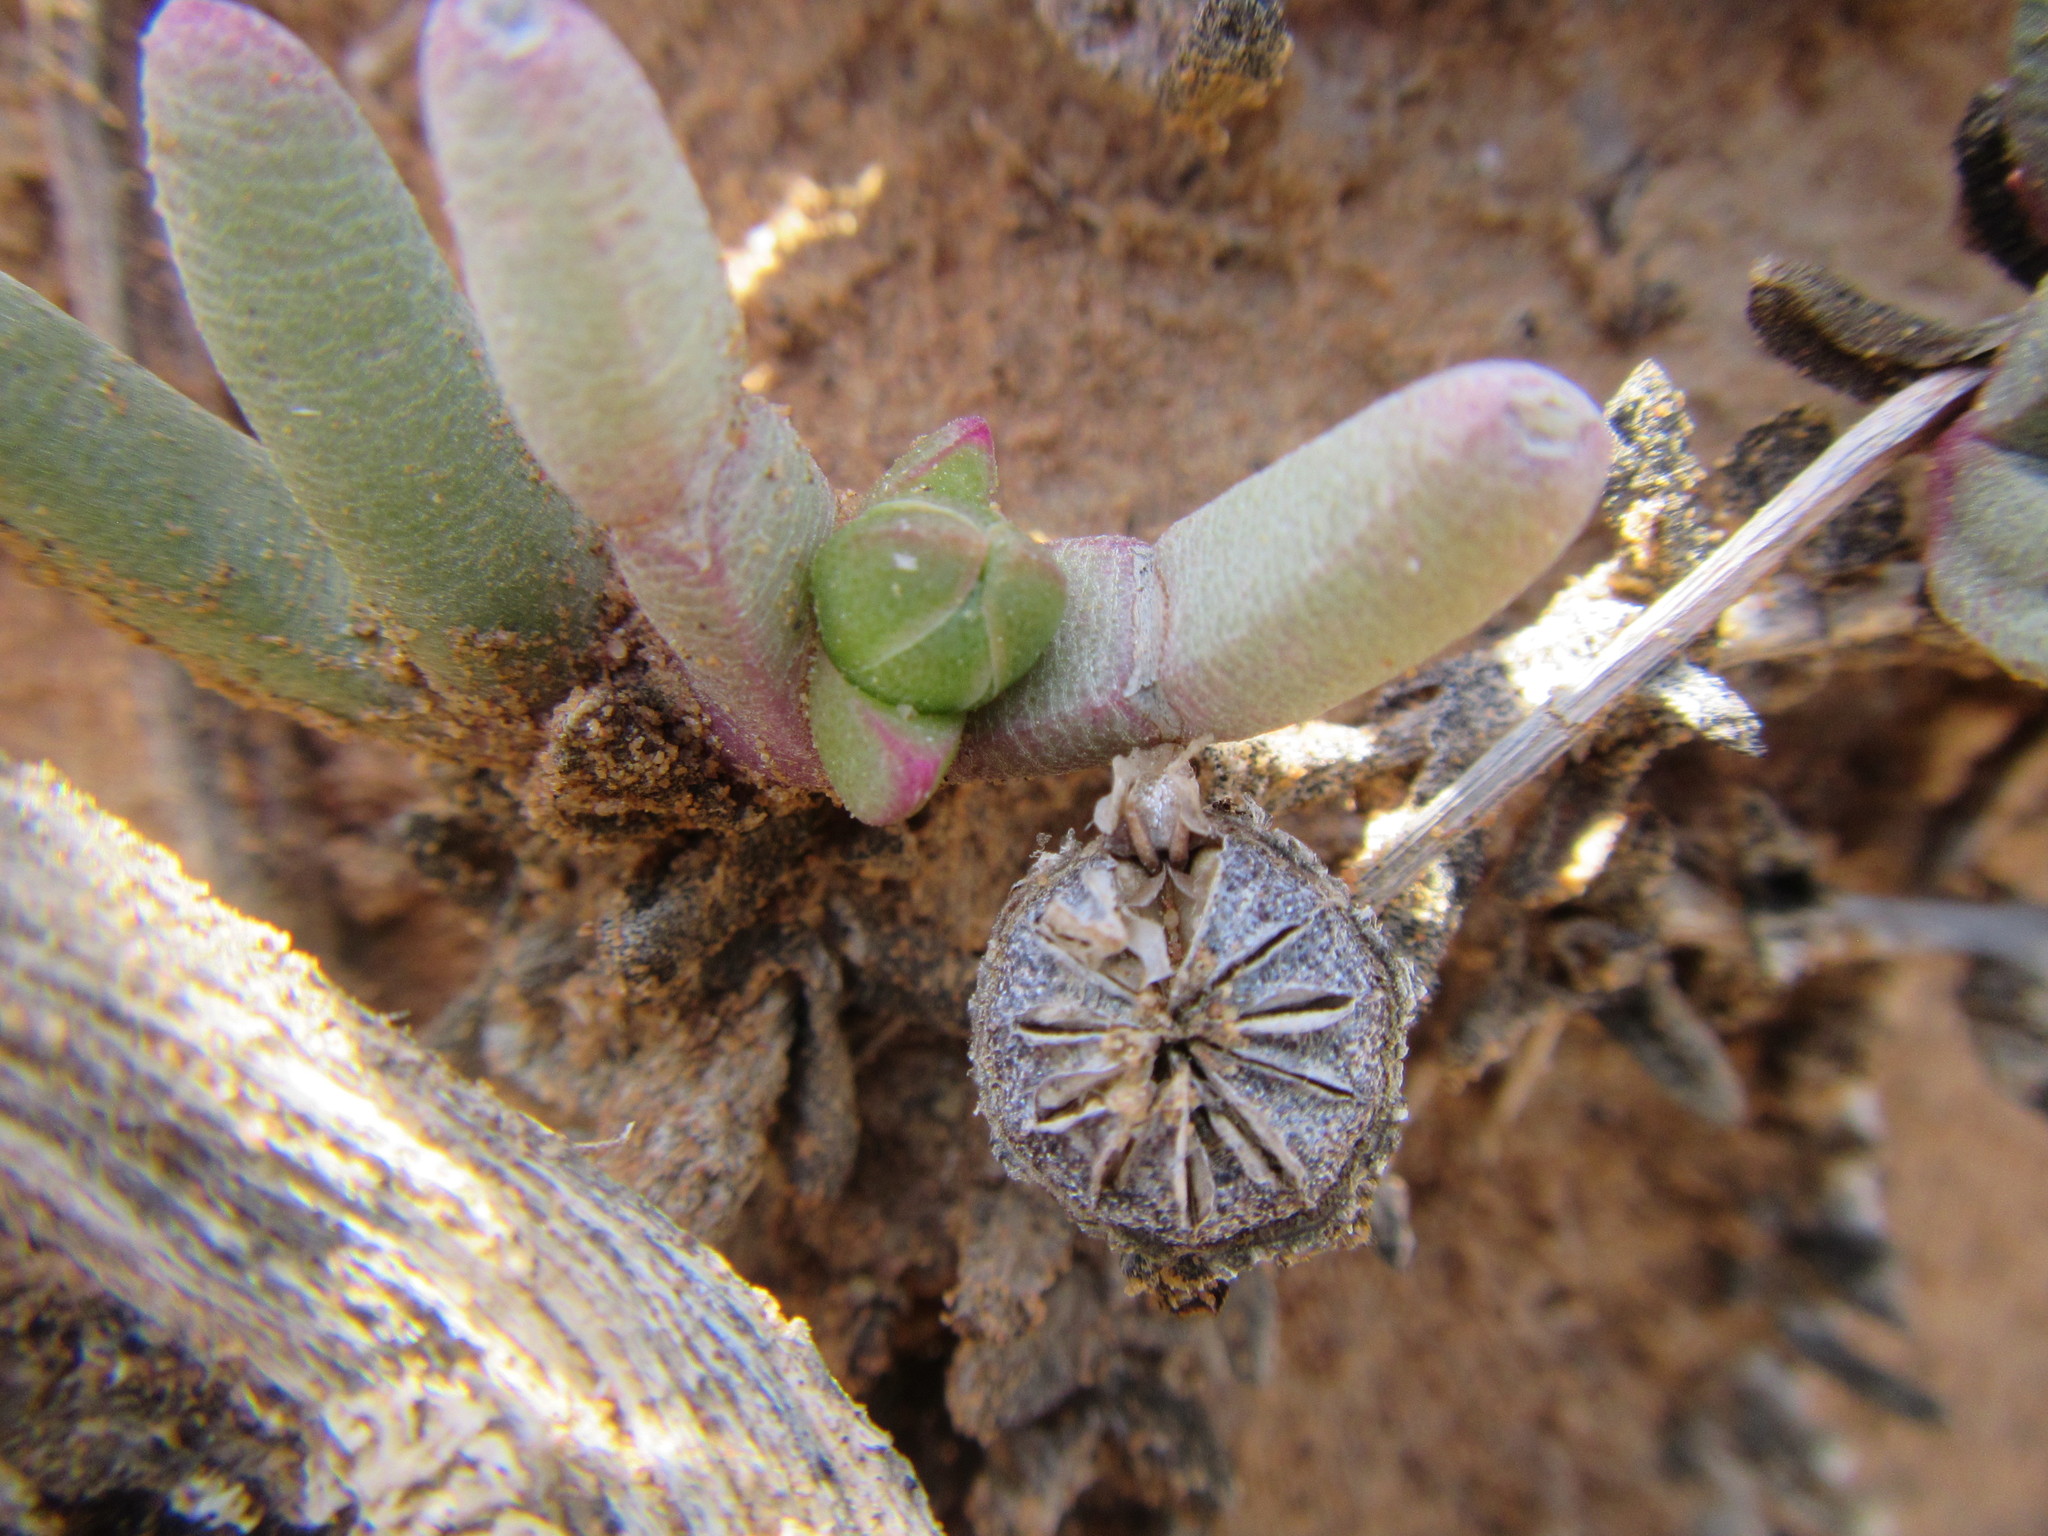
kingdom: Plantae
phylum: Tracheophyta
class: Magnoliopsida
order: Caryophyllales
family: Aizoaceae
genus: Cephalophyllum
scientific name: Cephalophyllum curtophyllum
